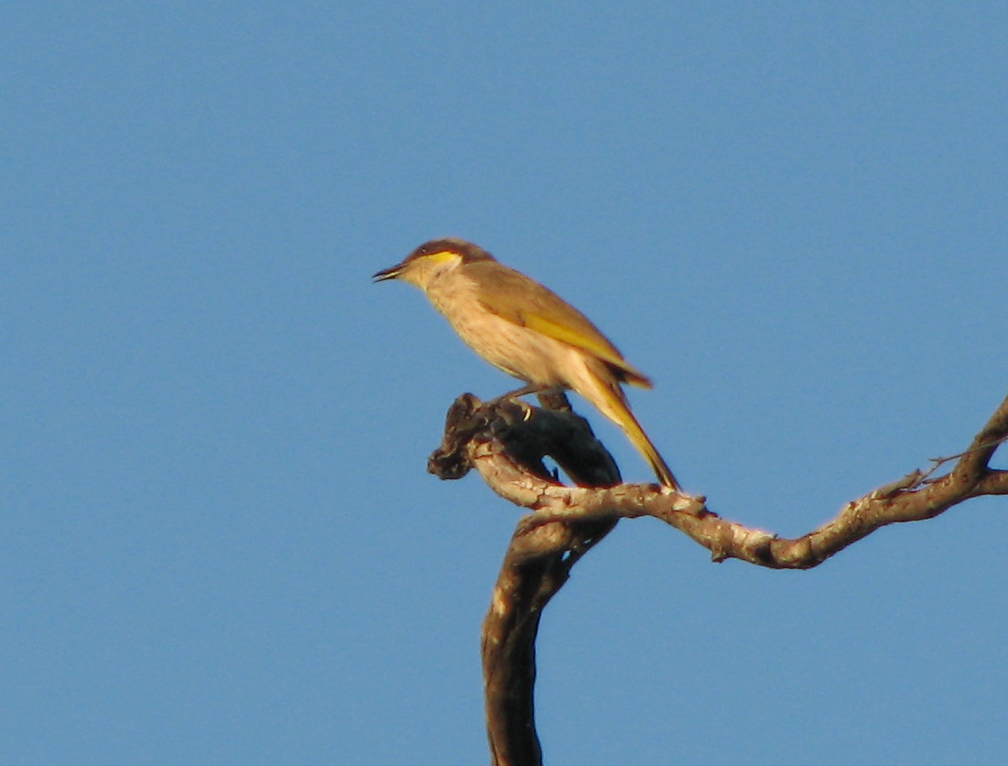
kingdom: Animalia
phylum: Chordata
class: Aves
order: Passeriformes
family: Meliphagidae
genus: Gavicalis
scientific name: Gavicalis virescens
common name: Singing honeyeater
